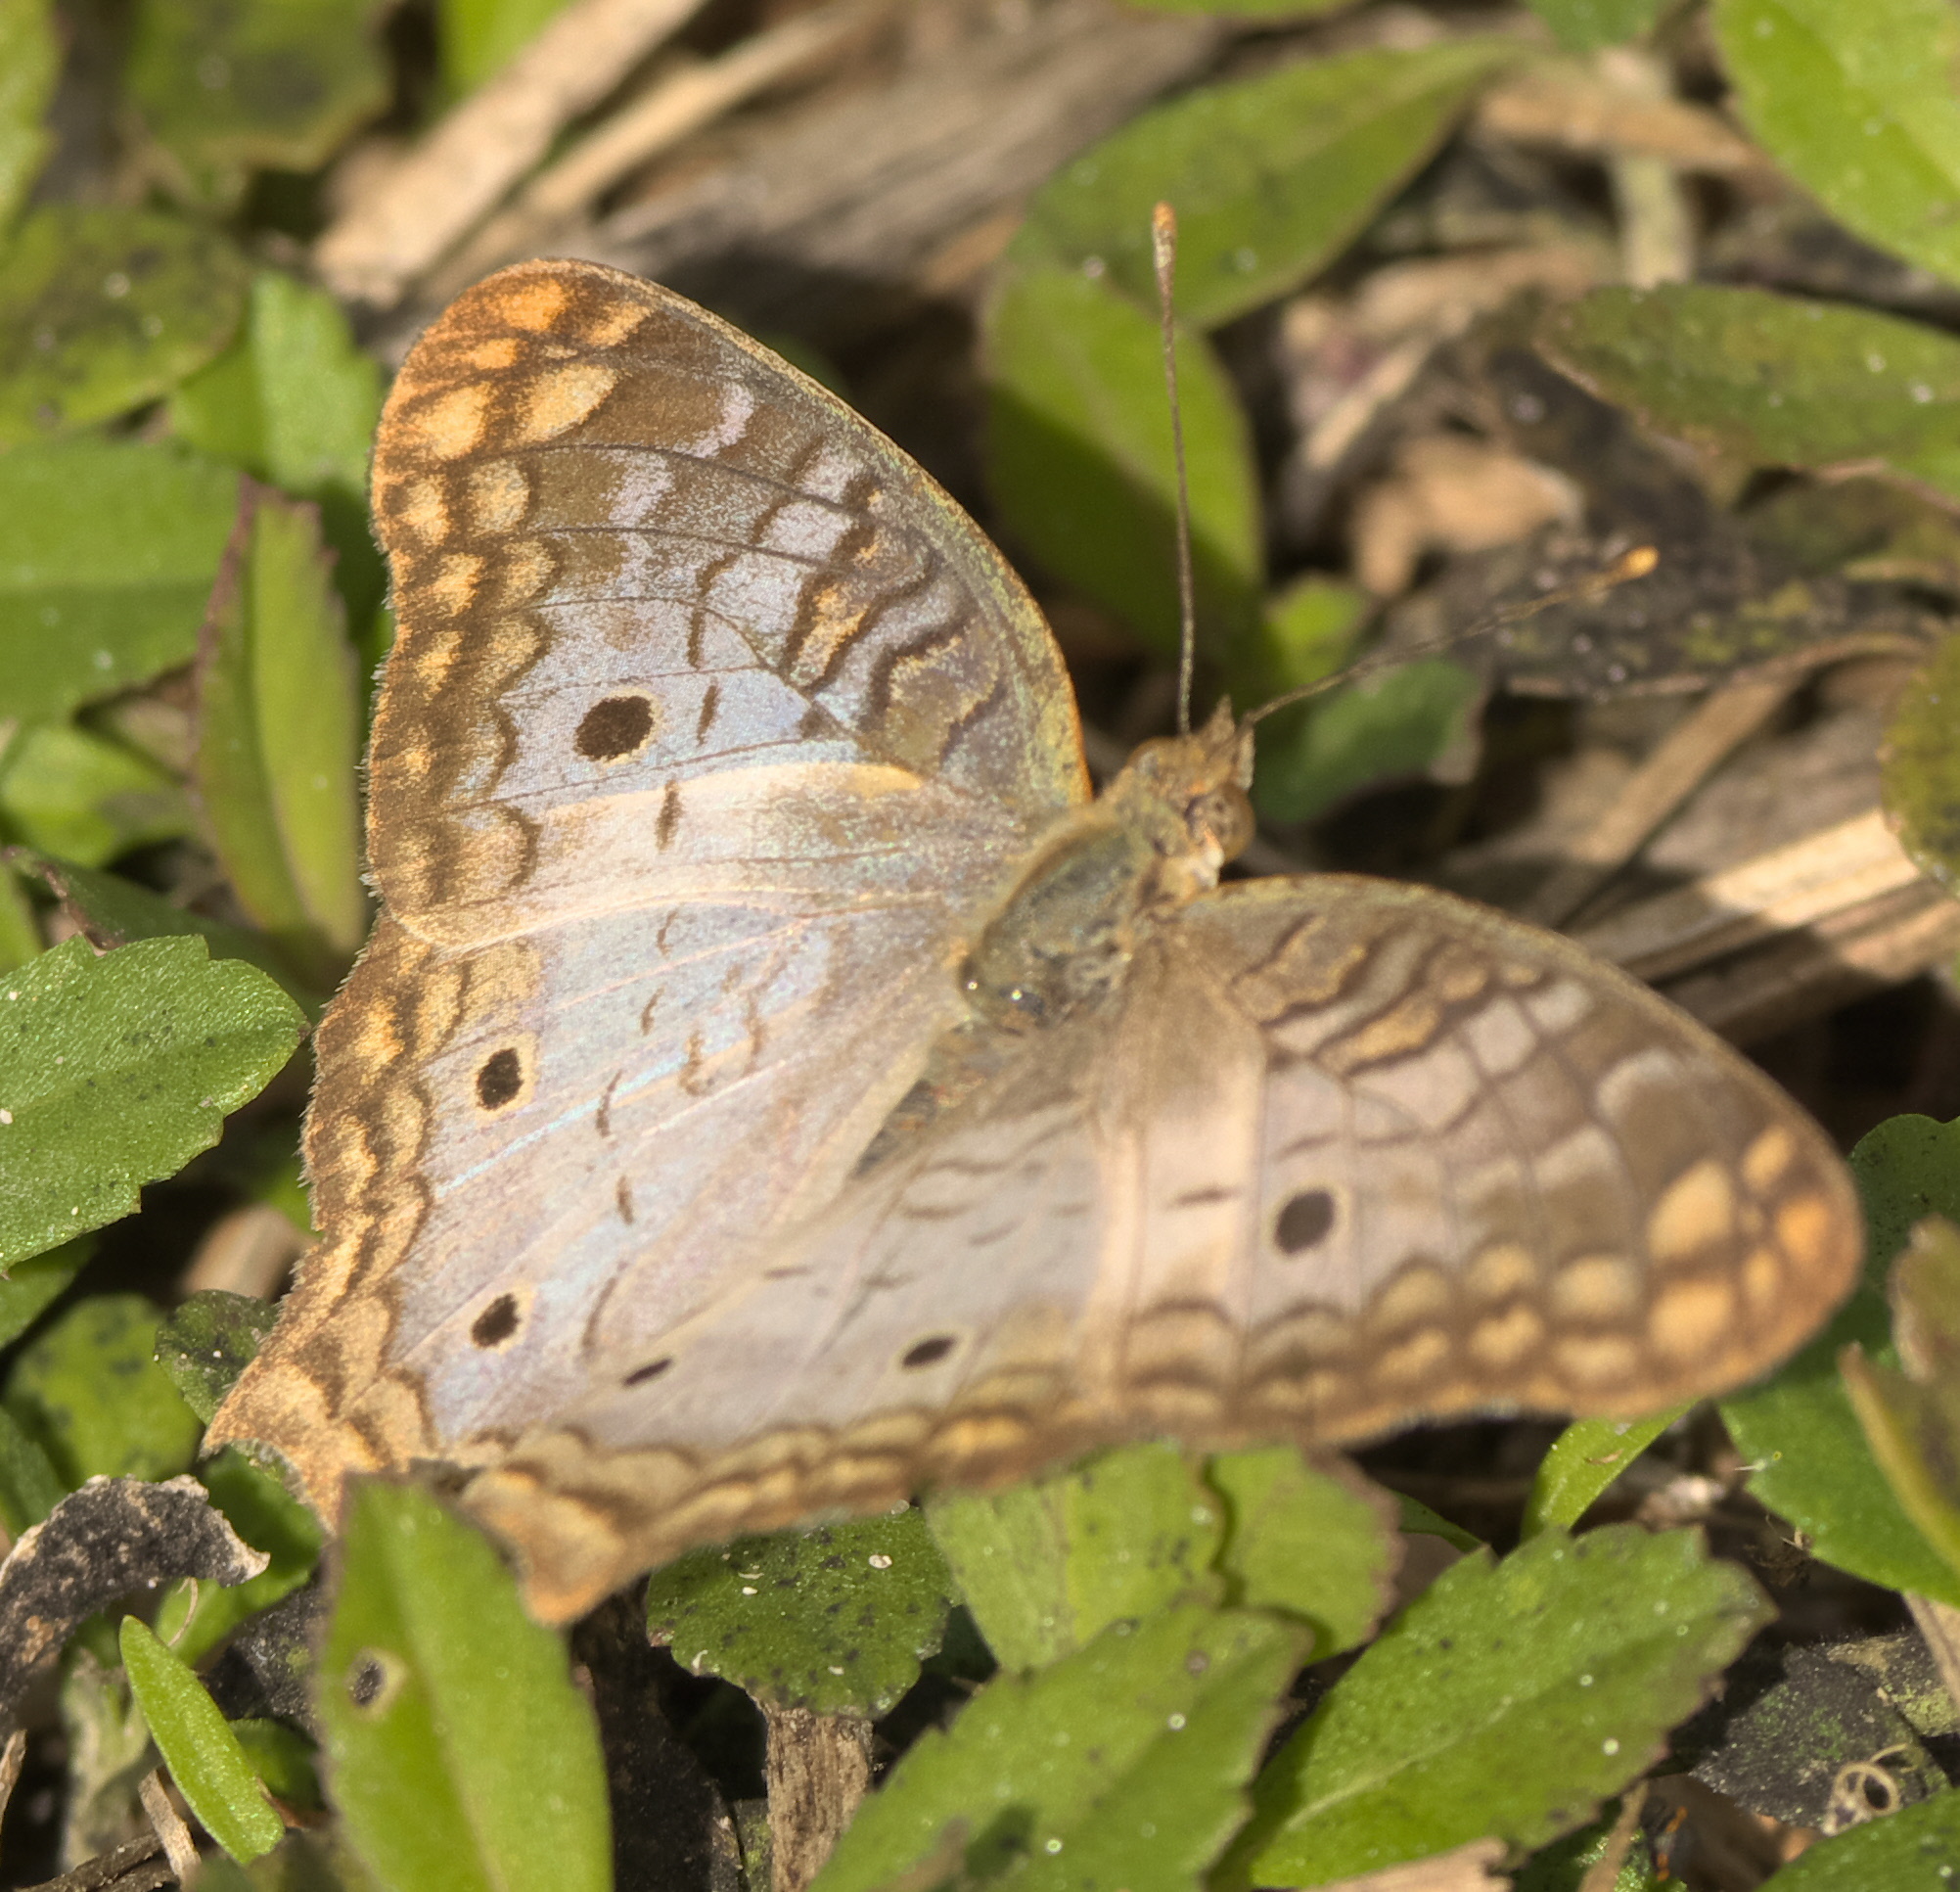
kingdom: Animalia
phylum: Arthropoda
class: Insecta
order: Lepidoptera
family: Nymphalidae
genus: Anartia
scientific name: Anartia jatrophae
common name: White peacock
